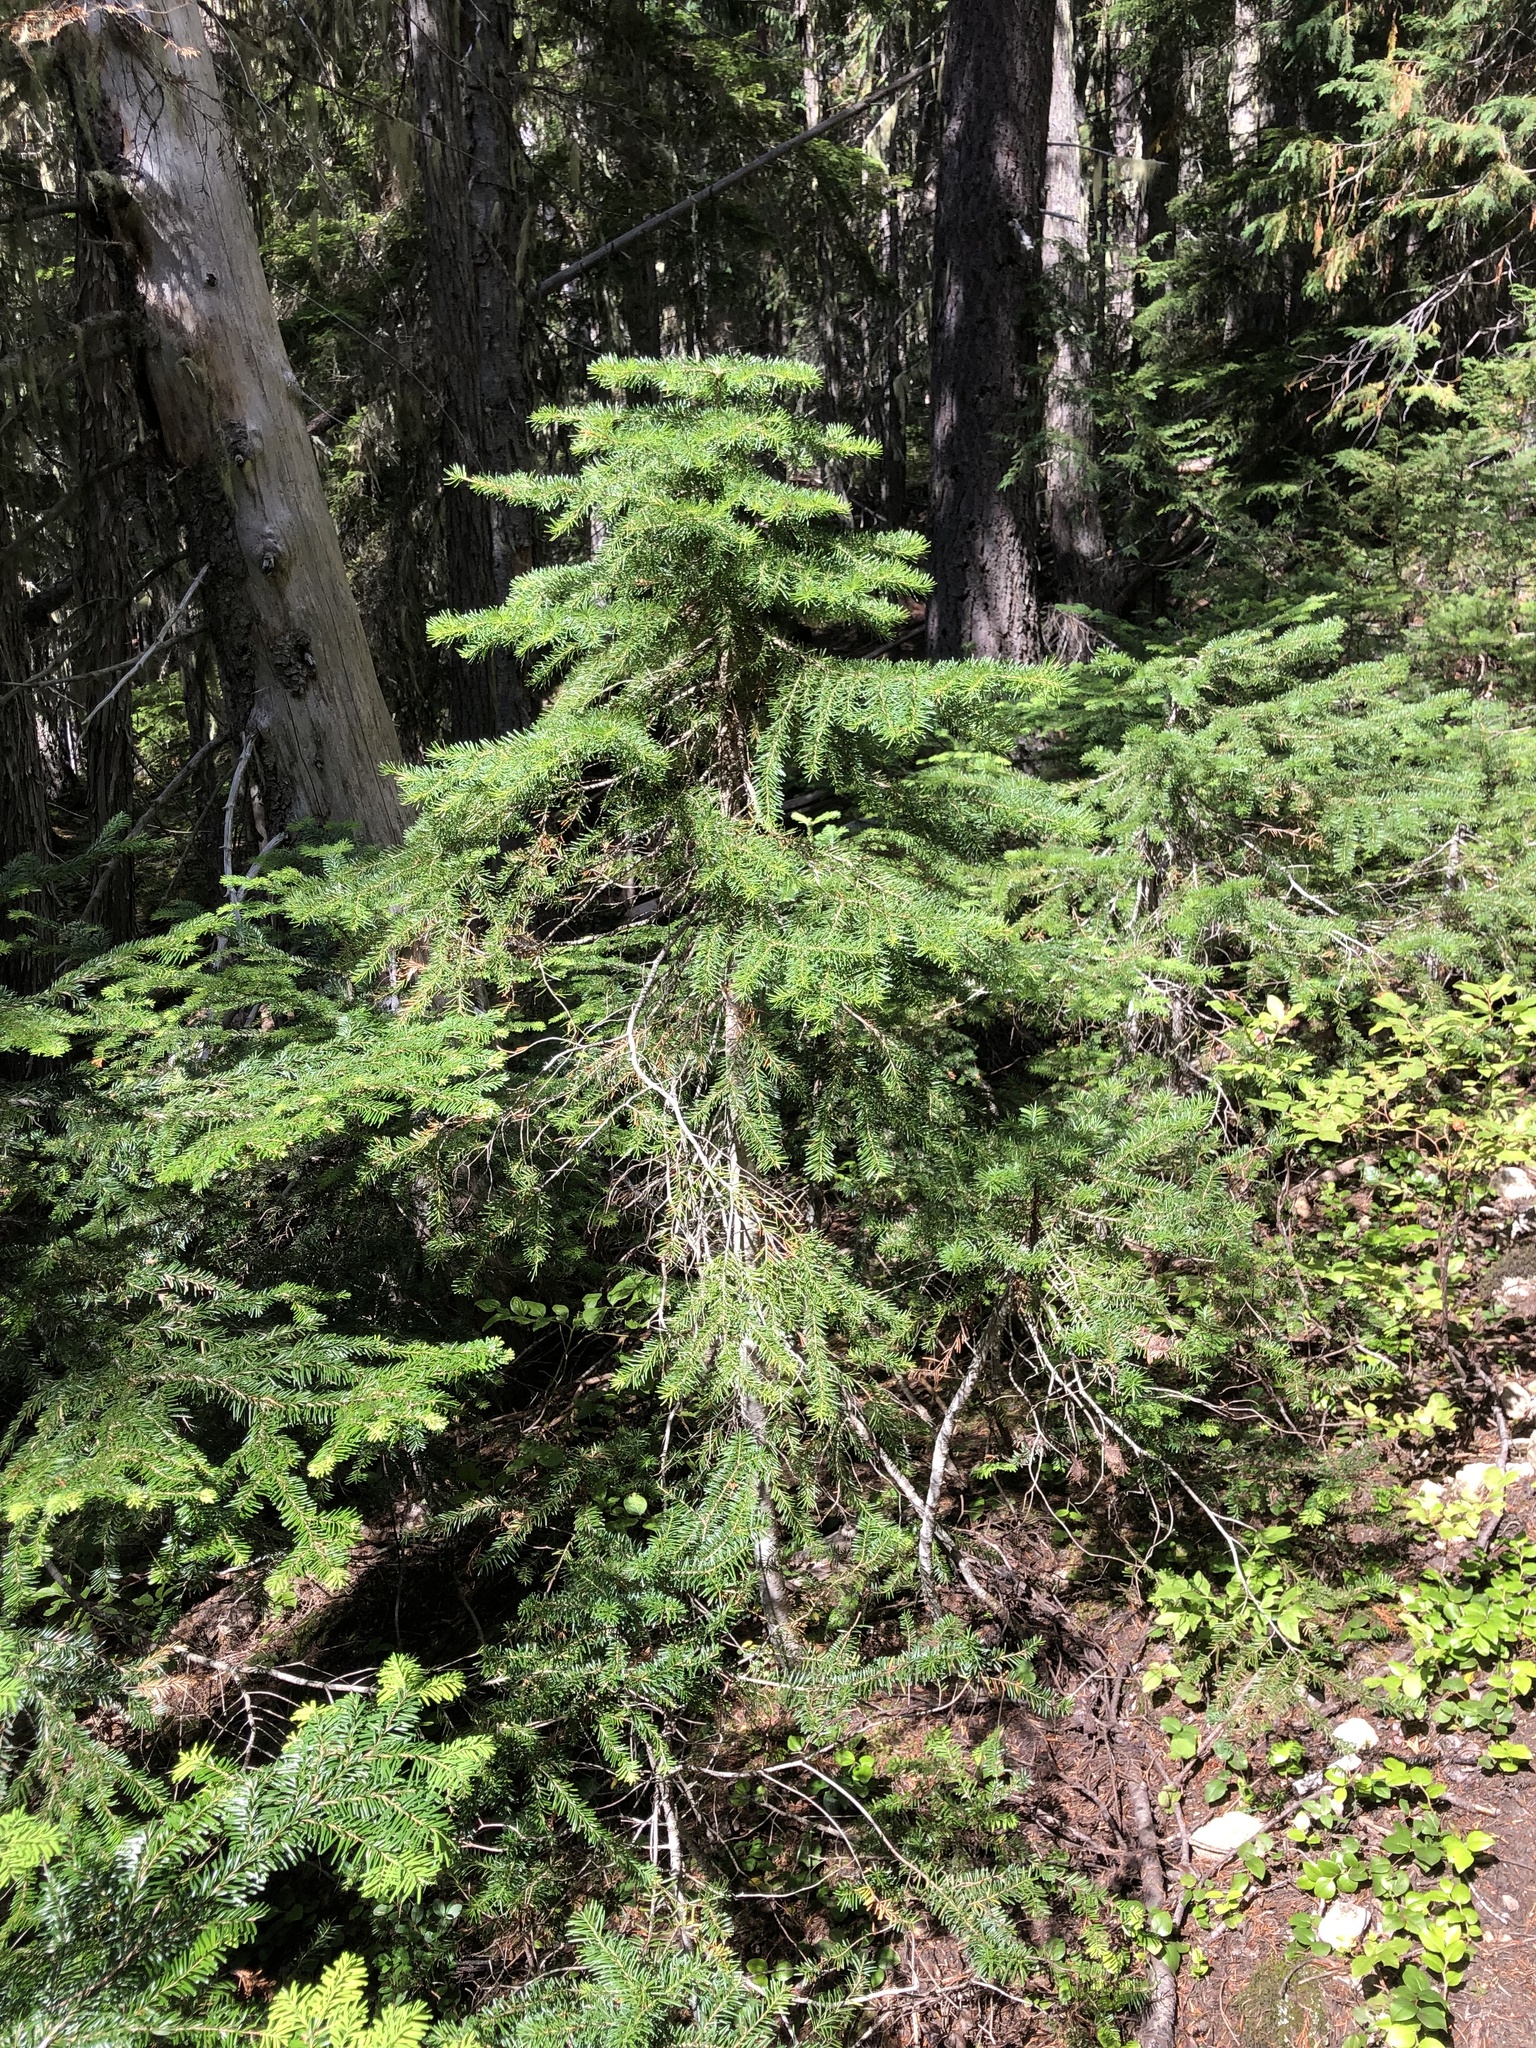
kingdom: Plantae
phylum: Tracheophyta
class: Pinopsida
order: Pinales
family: Pinaceae
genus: Abies
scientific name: Abies lasiocarpa
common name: Subalpine fir
